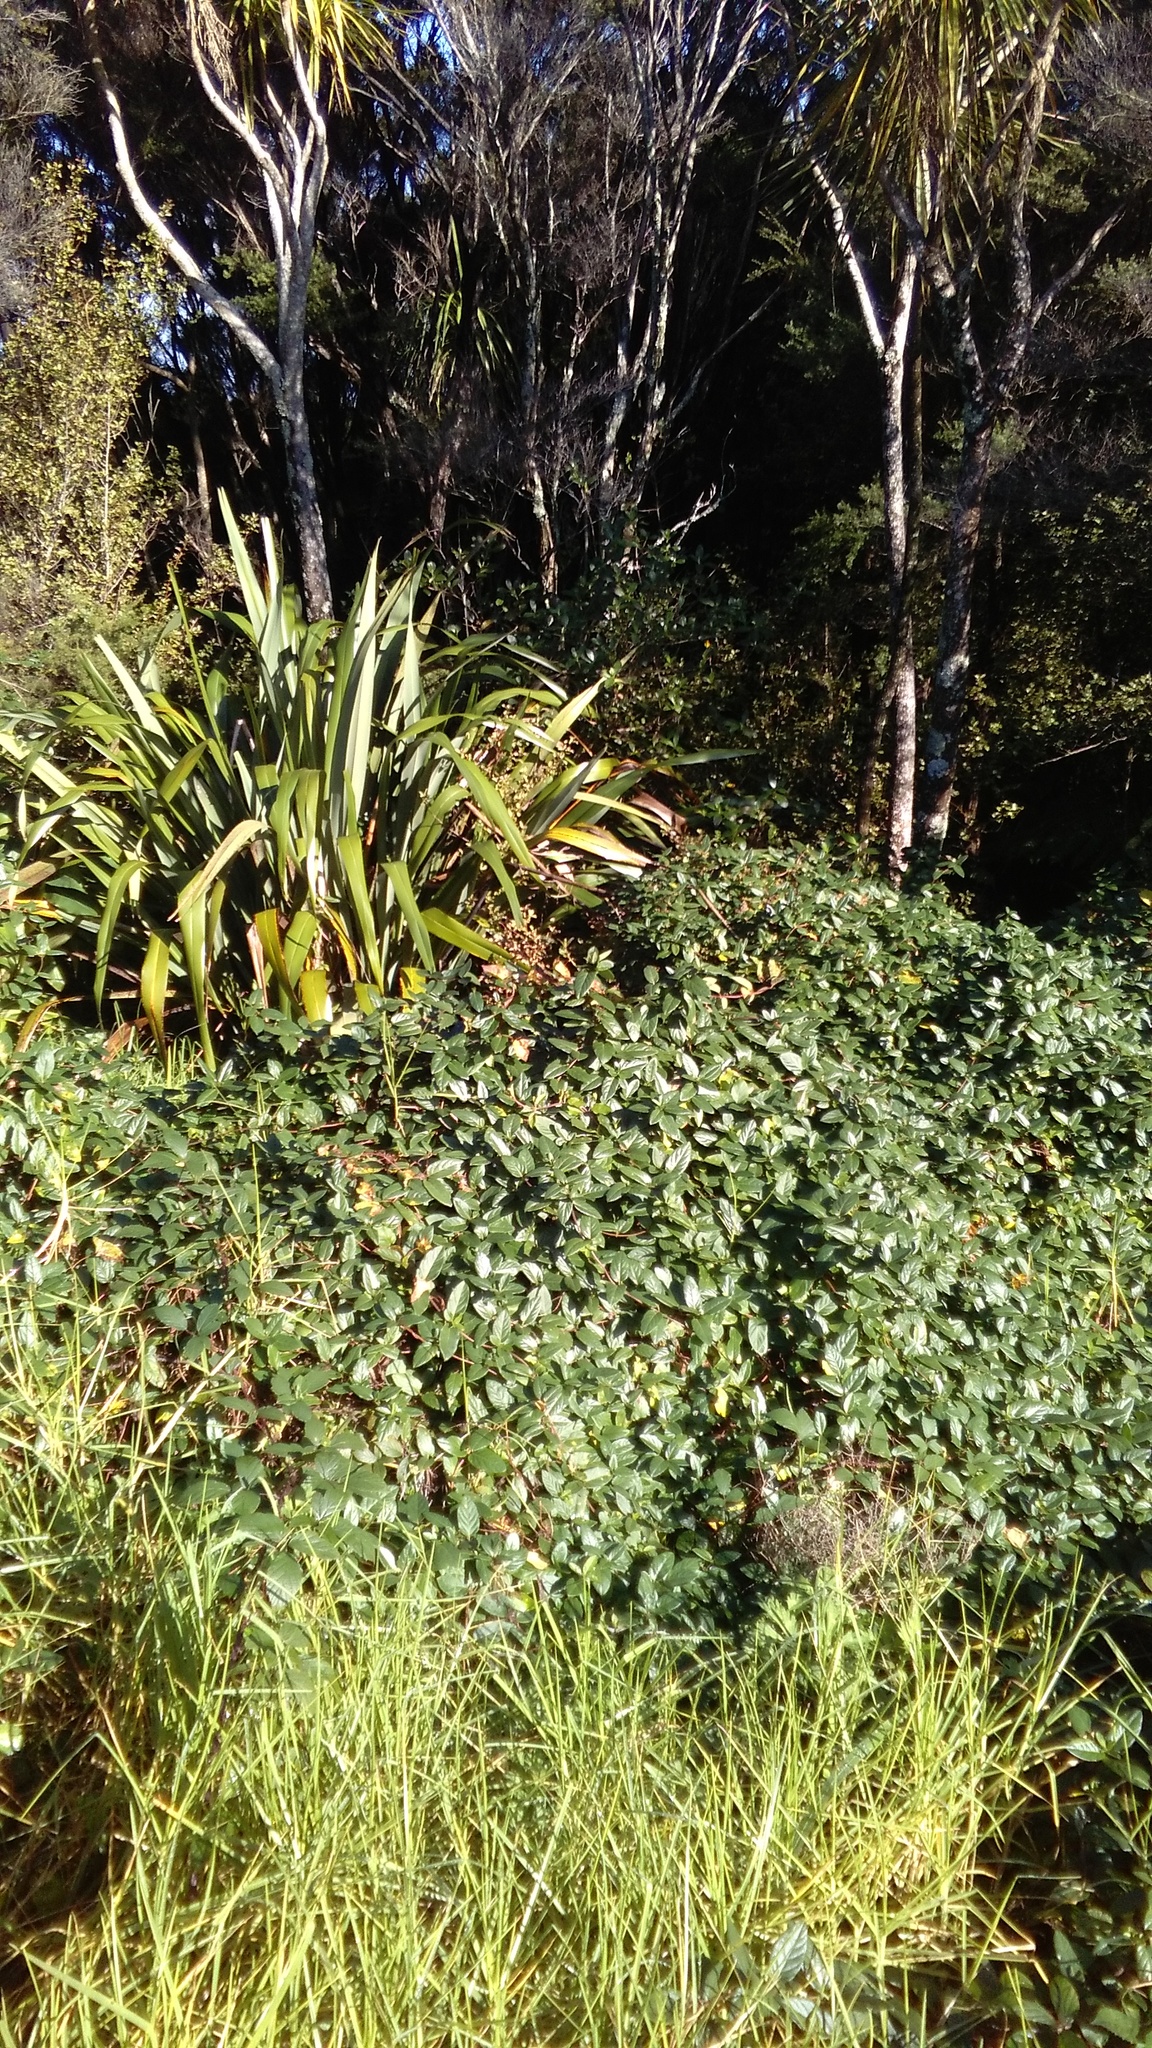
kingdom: Plantae
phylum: Tracheophyta
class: Magnoliopsida
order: Dipsacales
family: Caprifoliaceae
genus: Lonicera
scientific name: Lonicera japonica
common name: Japanese honeysuckle
